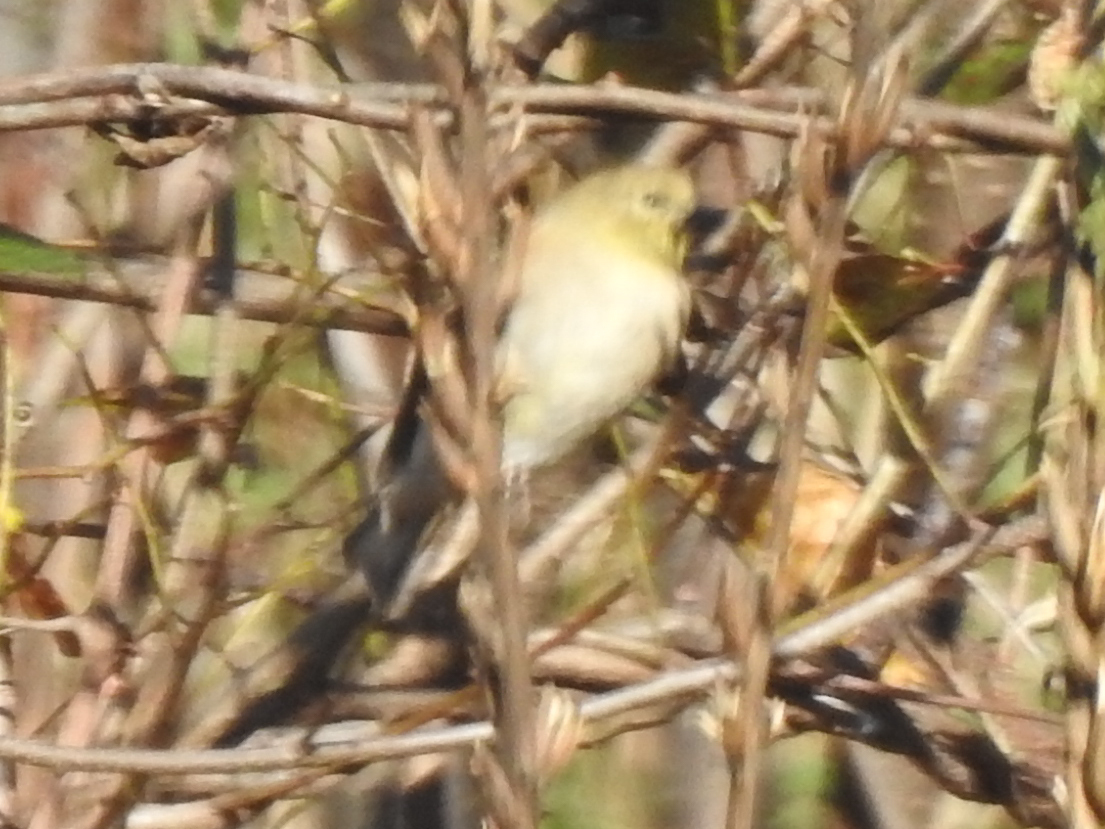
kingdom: Animalia
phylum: Chordata
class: Aves
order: Passeriformes
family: Fringillidae
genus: Spinus
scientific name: Spinus tristis
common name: American goldfinch
